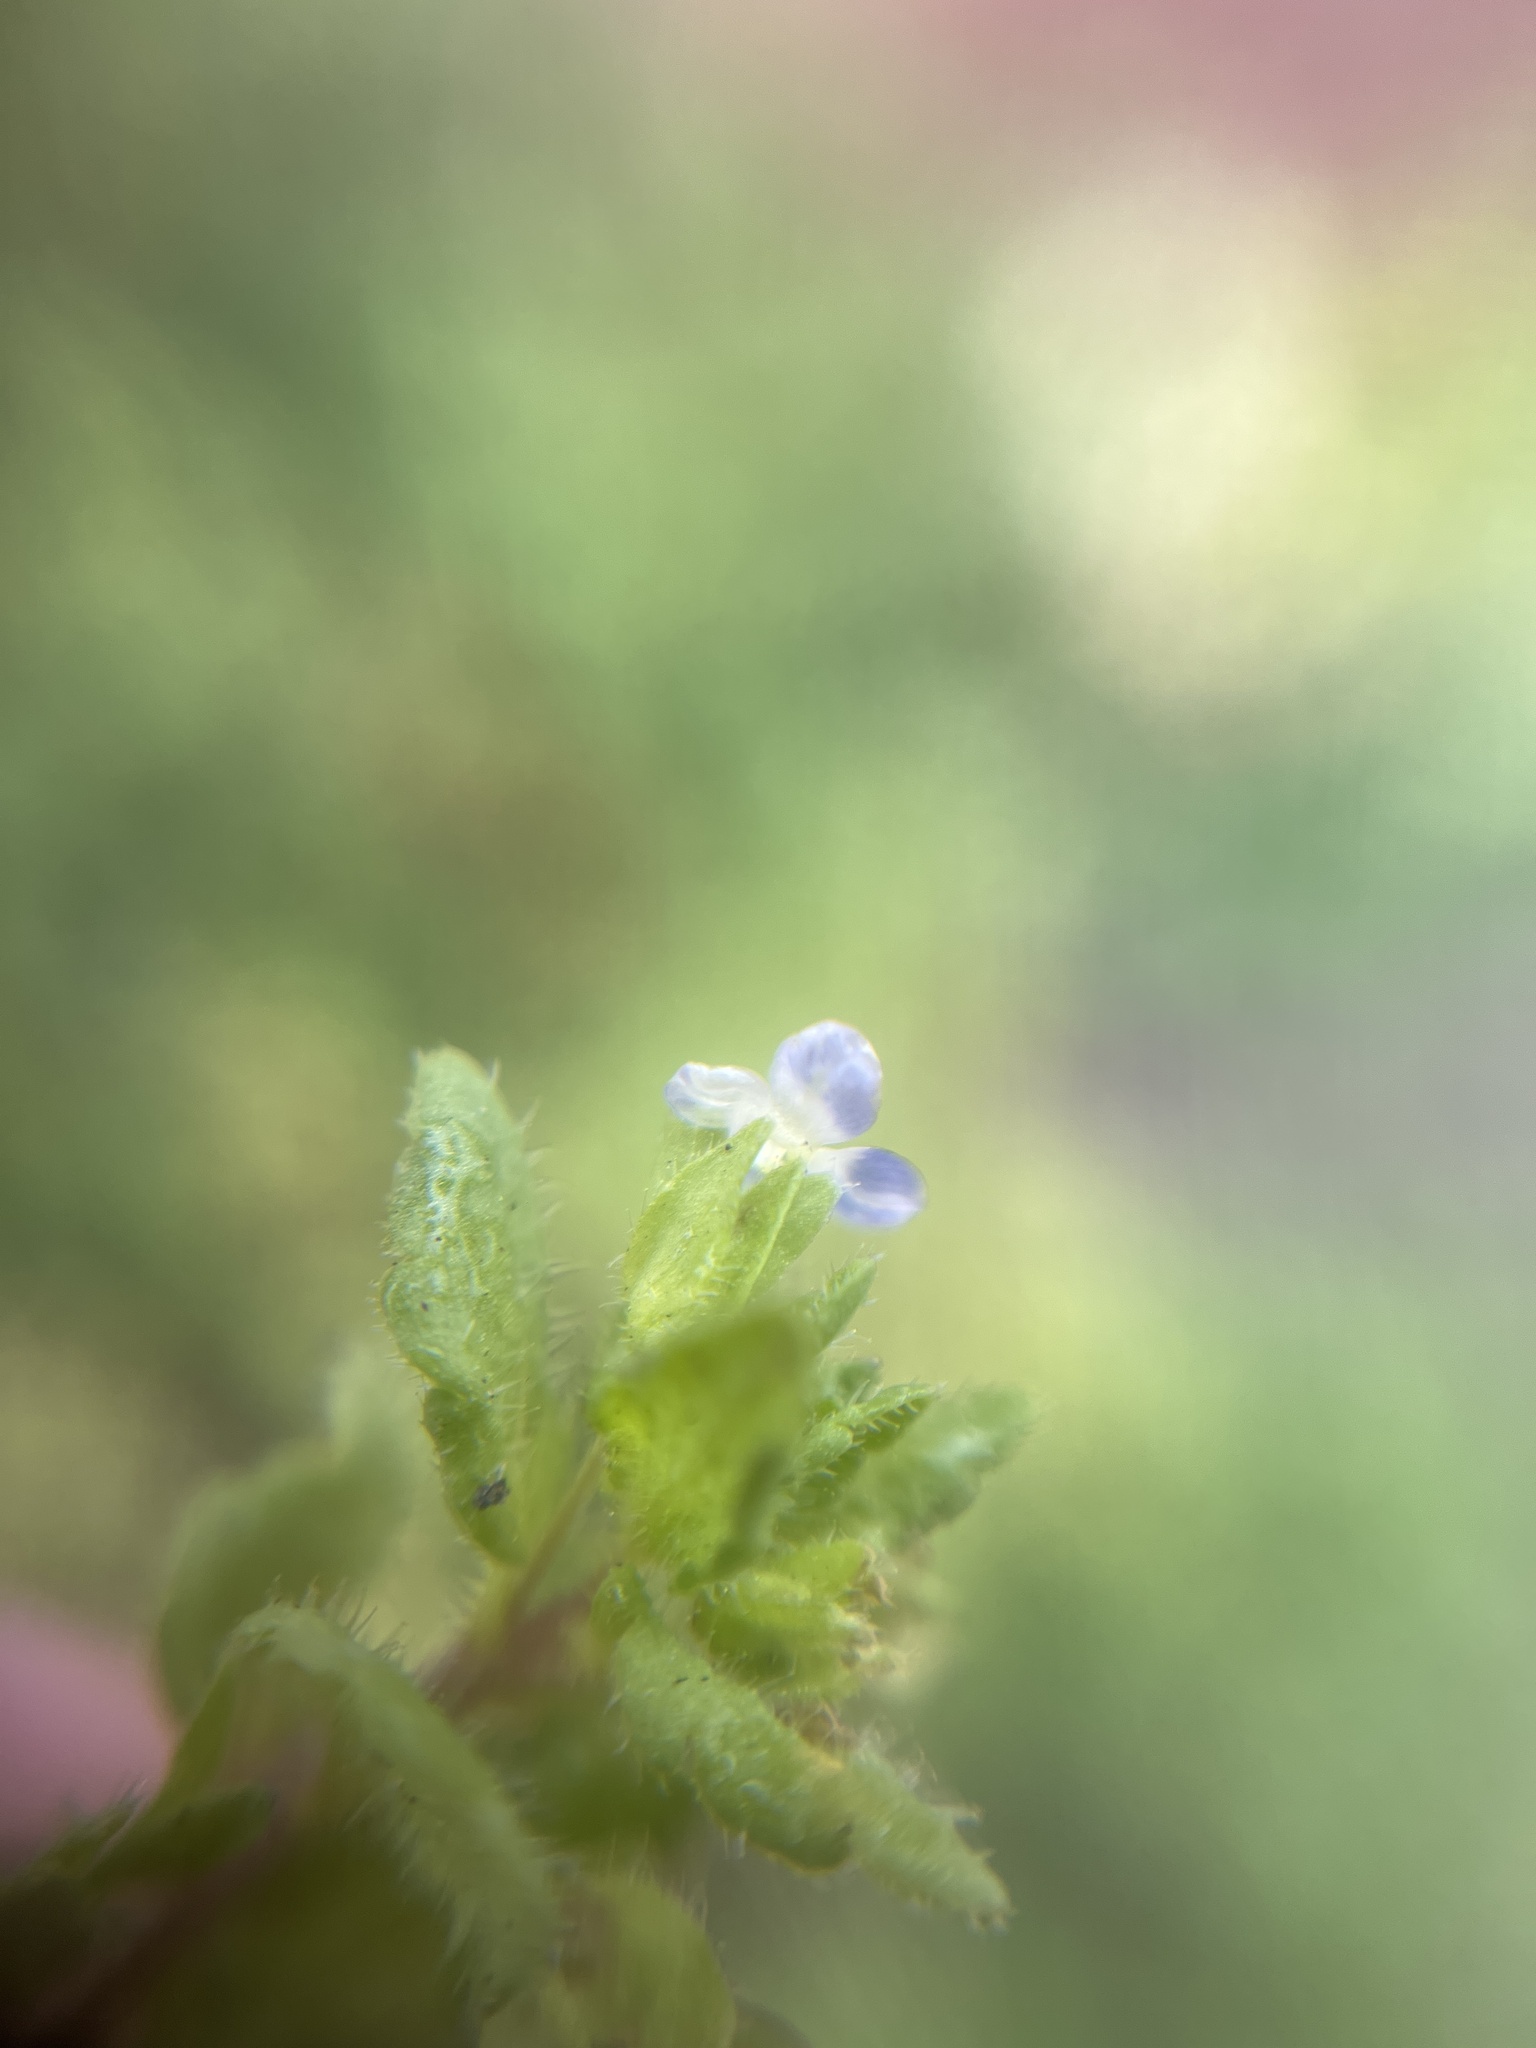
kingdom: Plantae
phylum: Tracheophyta
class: Magnoliopsida
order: Lamiales
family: Plantaginaceae
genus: Veronica
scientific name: Veronica arvensis
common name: Corn speedwell
